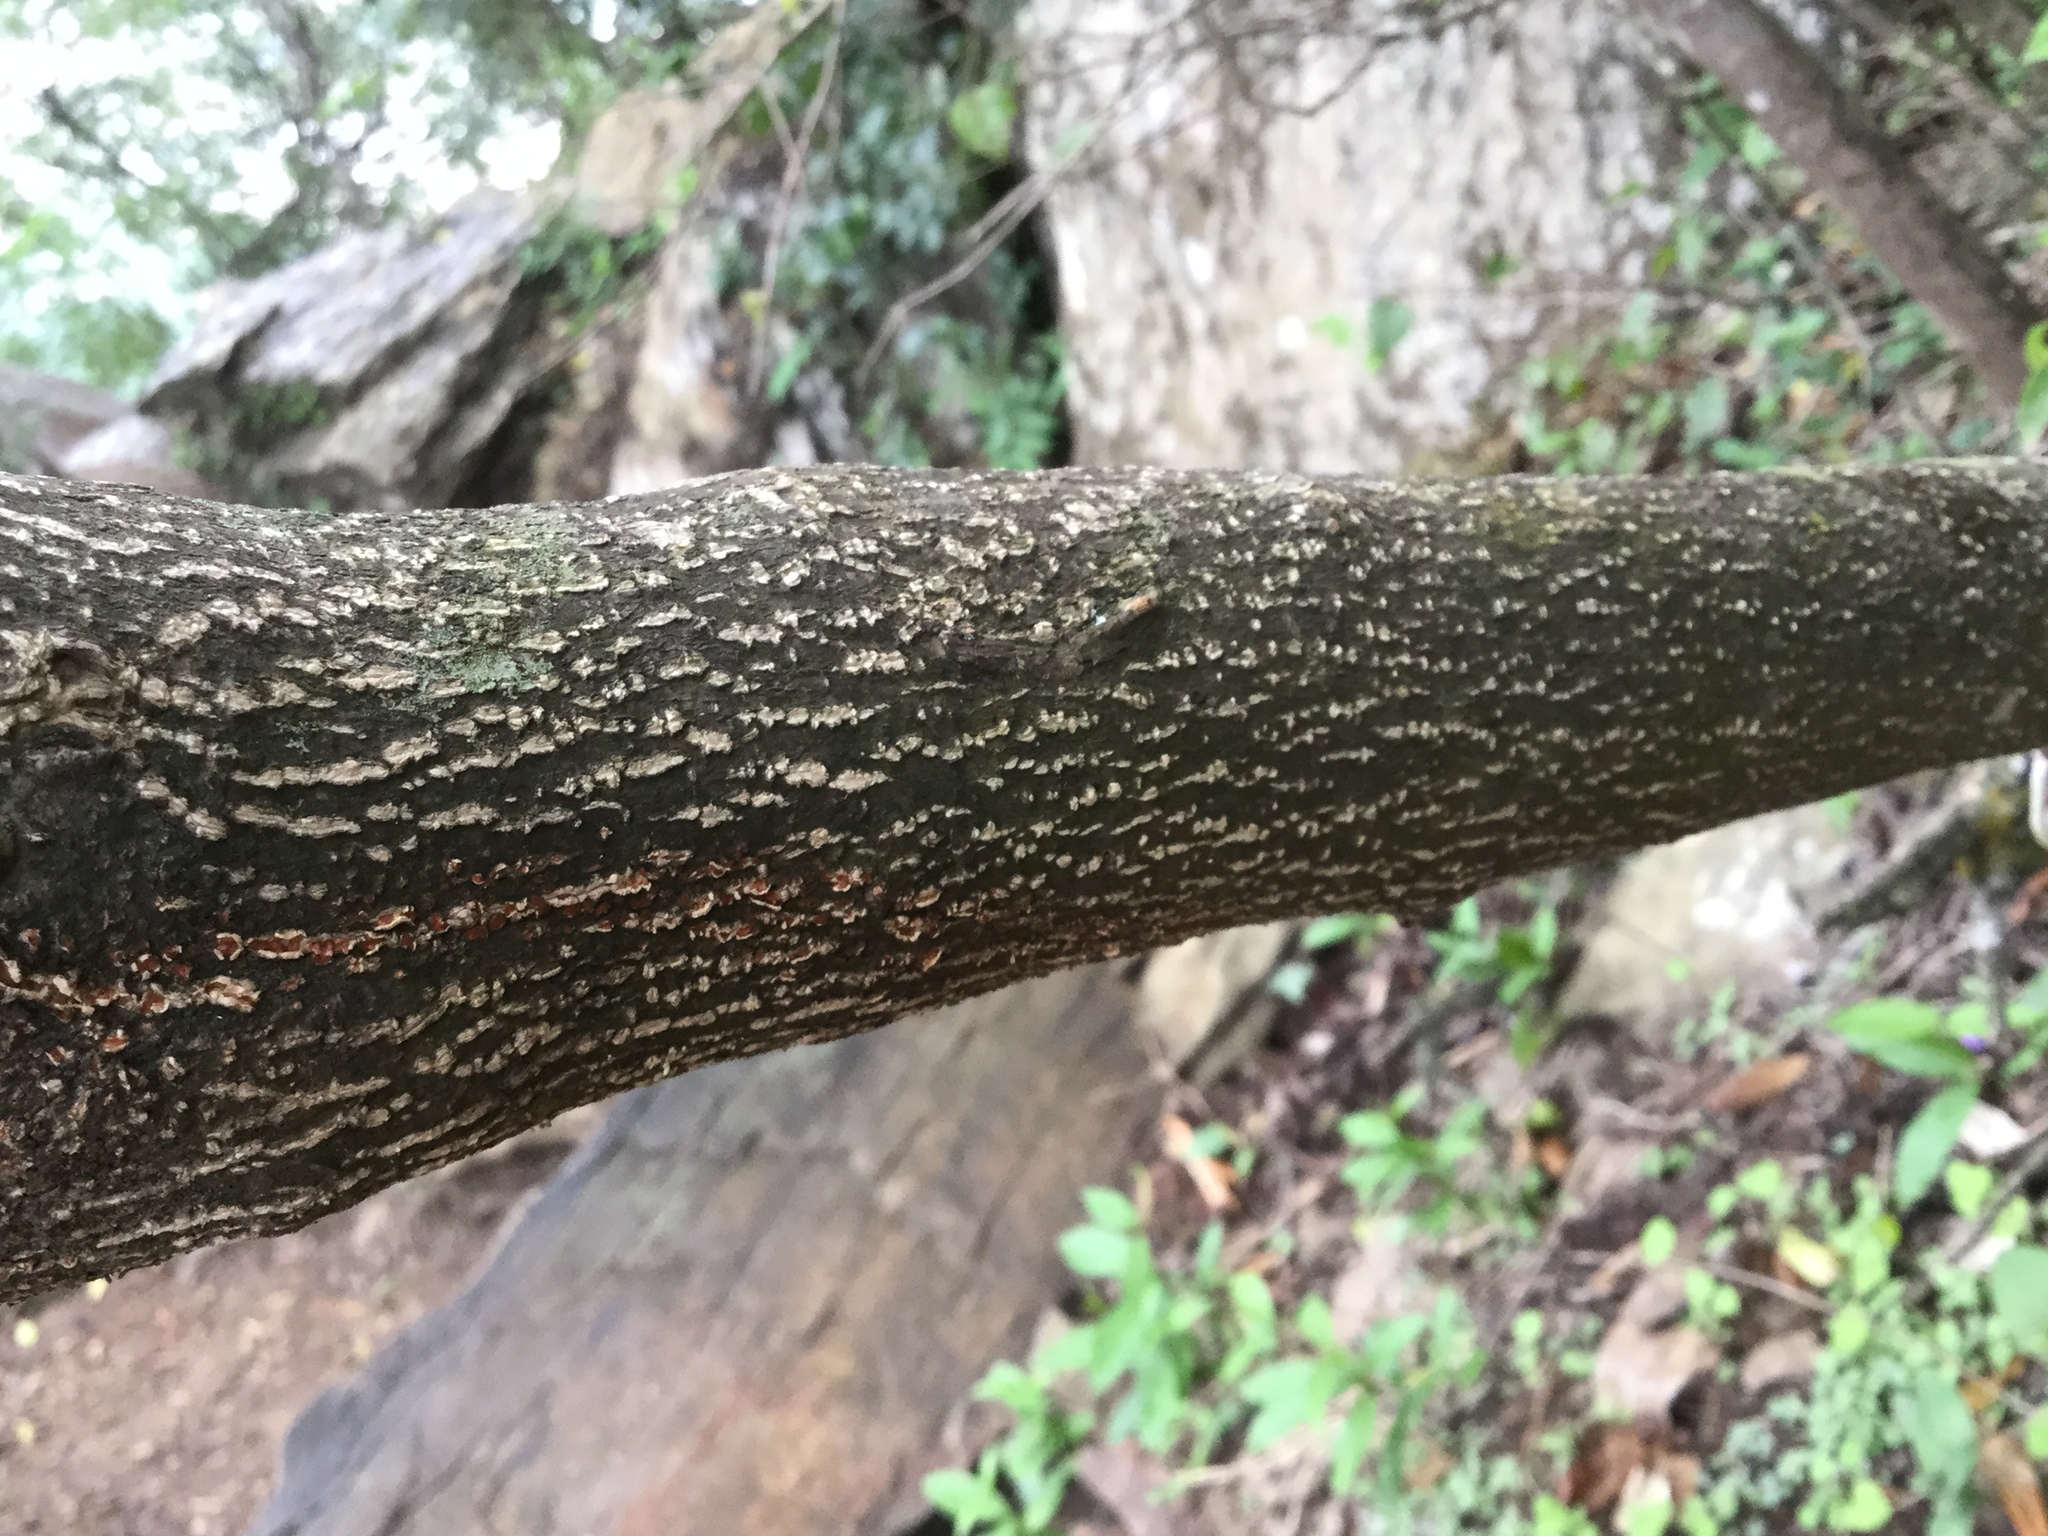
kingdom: Plantae
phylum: Tracheophyta
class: Magnoliopsida
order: Sapindales
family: Rutaceae
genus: Decatropis
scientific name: Decatropis bicolor
